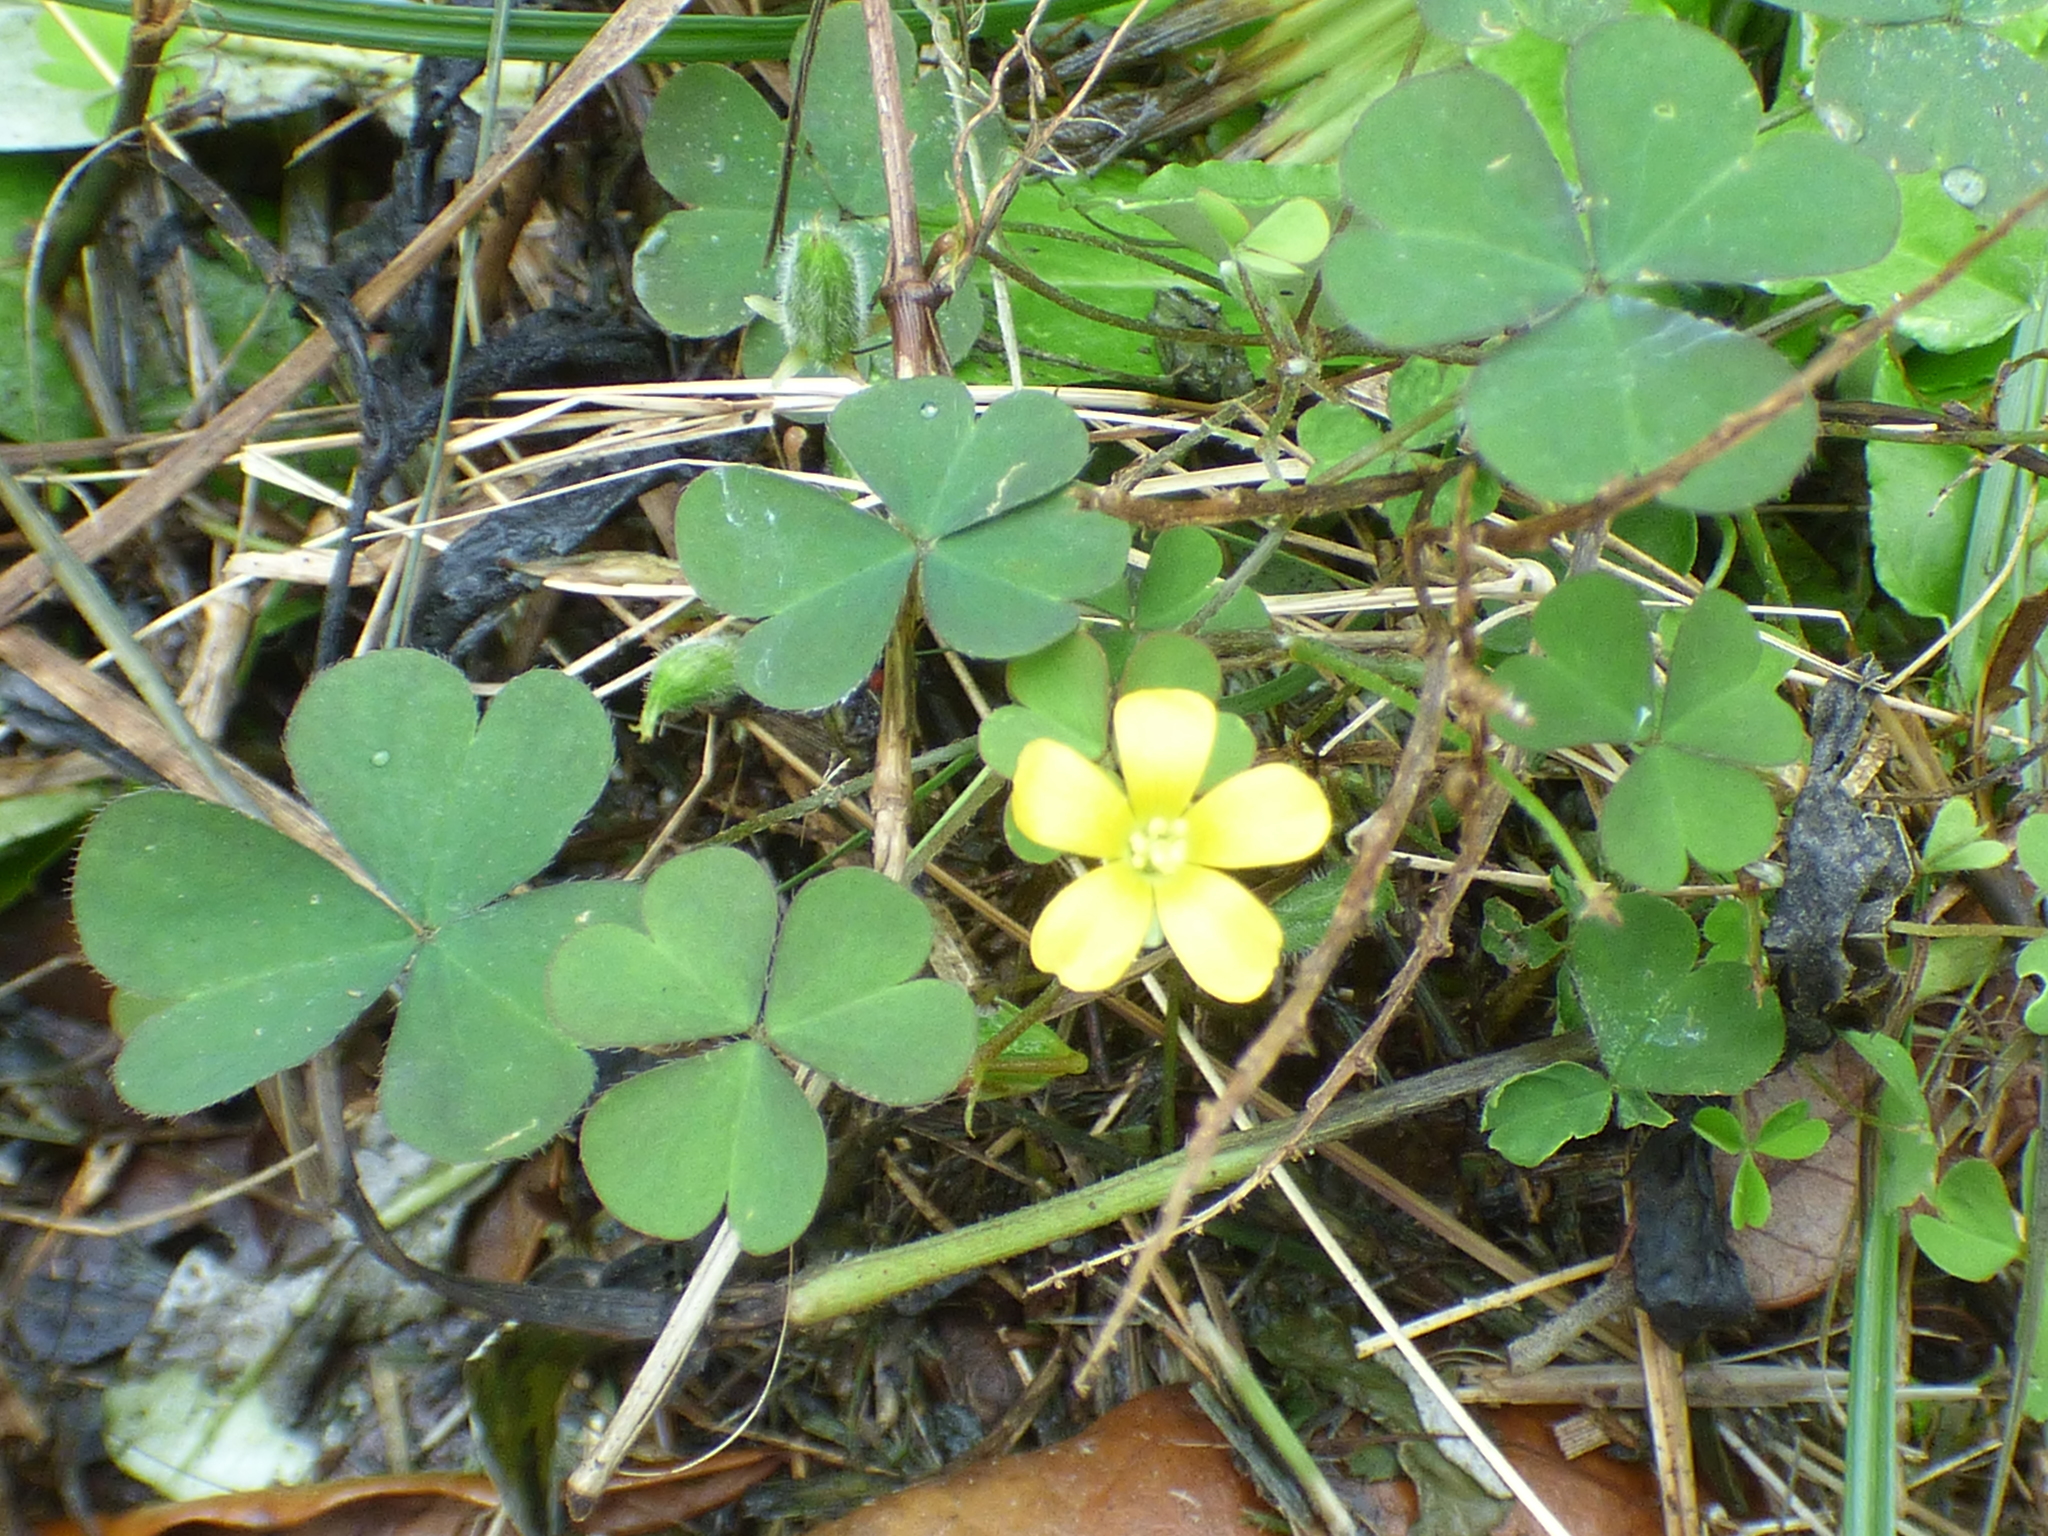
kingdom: Plantae
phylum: Tracheophyta
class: Magnoliopsida
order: Oxalidales
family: Oxalidaceae
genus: Oxalis
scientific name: Oxalis corniculata
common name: Procumbent yellow-sorrel
